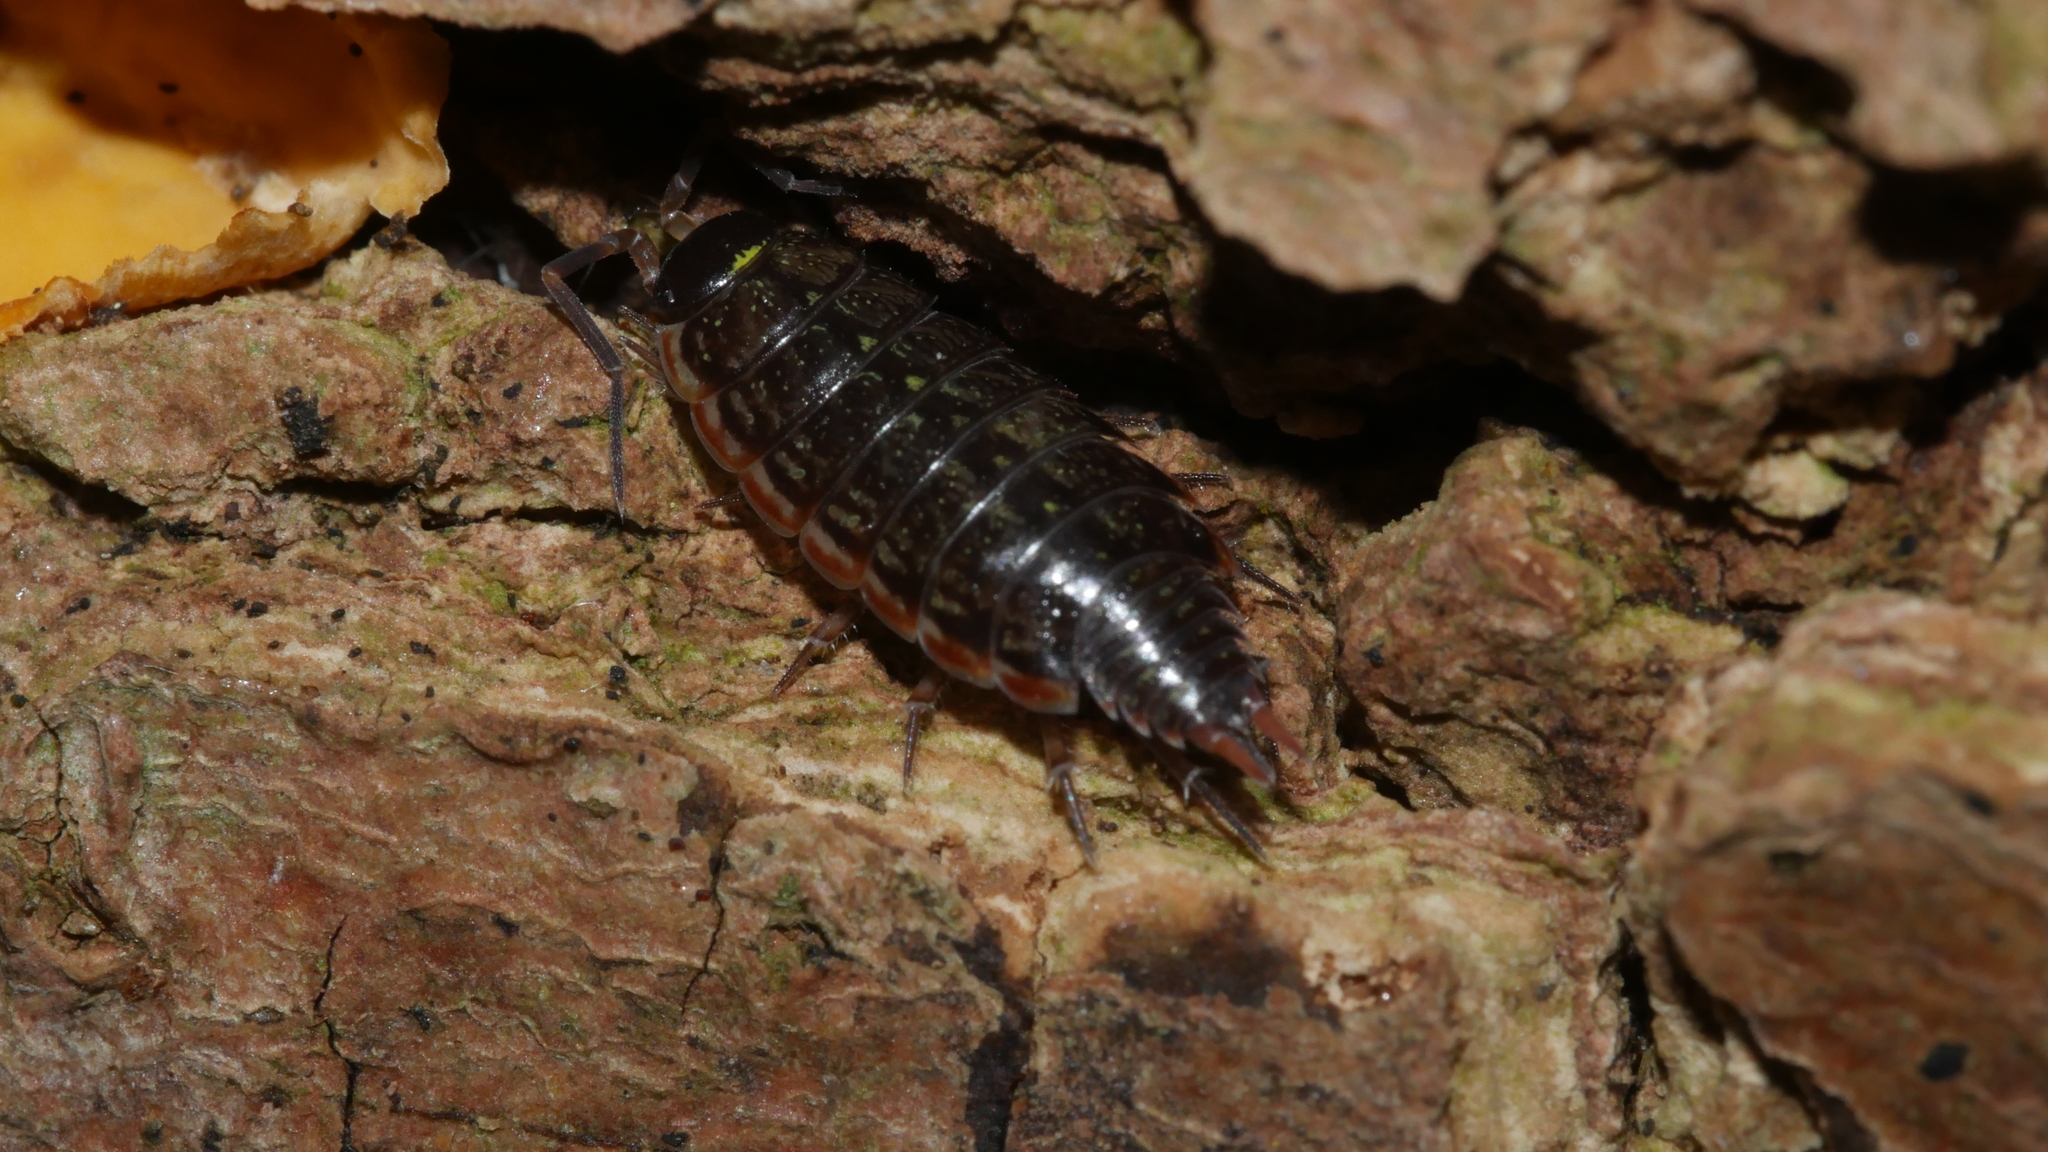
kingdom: Animalia
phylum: Arthropoda
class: Malacostraca
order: Isopoda
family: Philosciidae
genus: Philoscia
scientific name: Philoscia muscorum
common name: Common striped woodlouse
